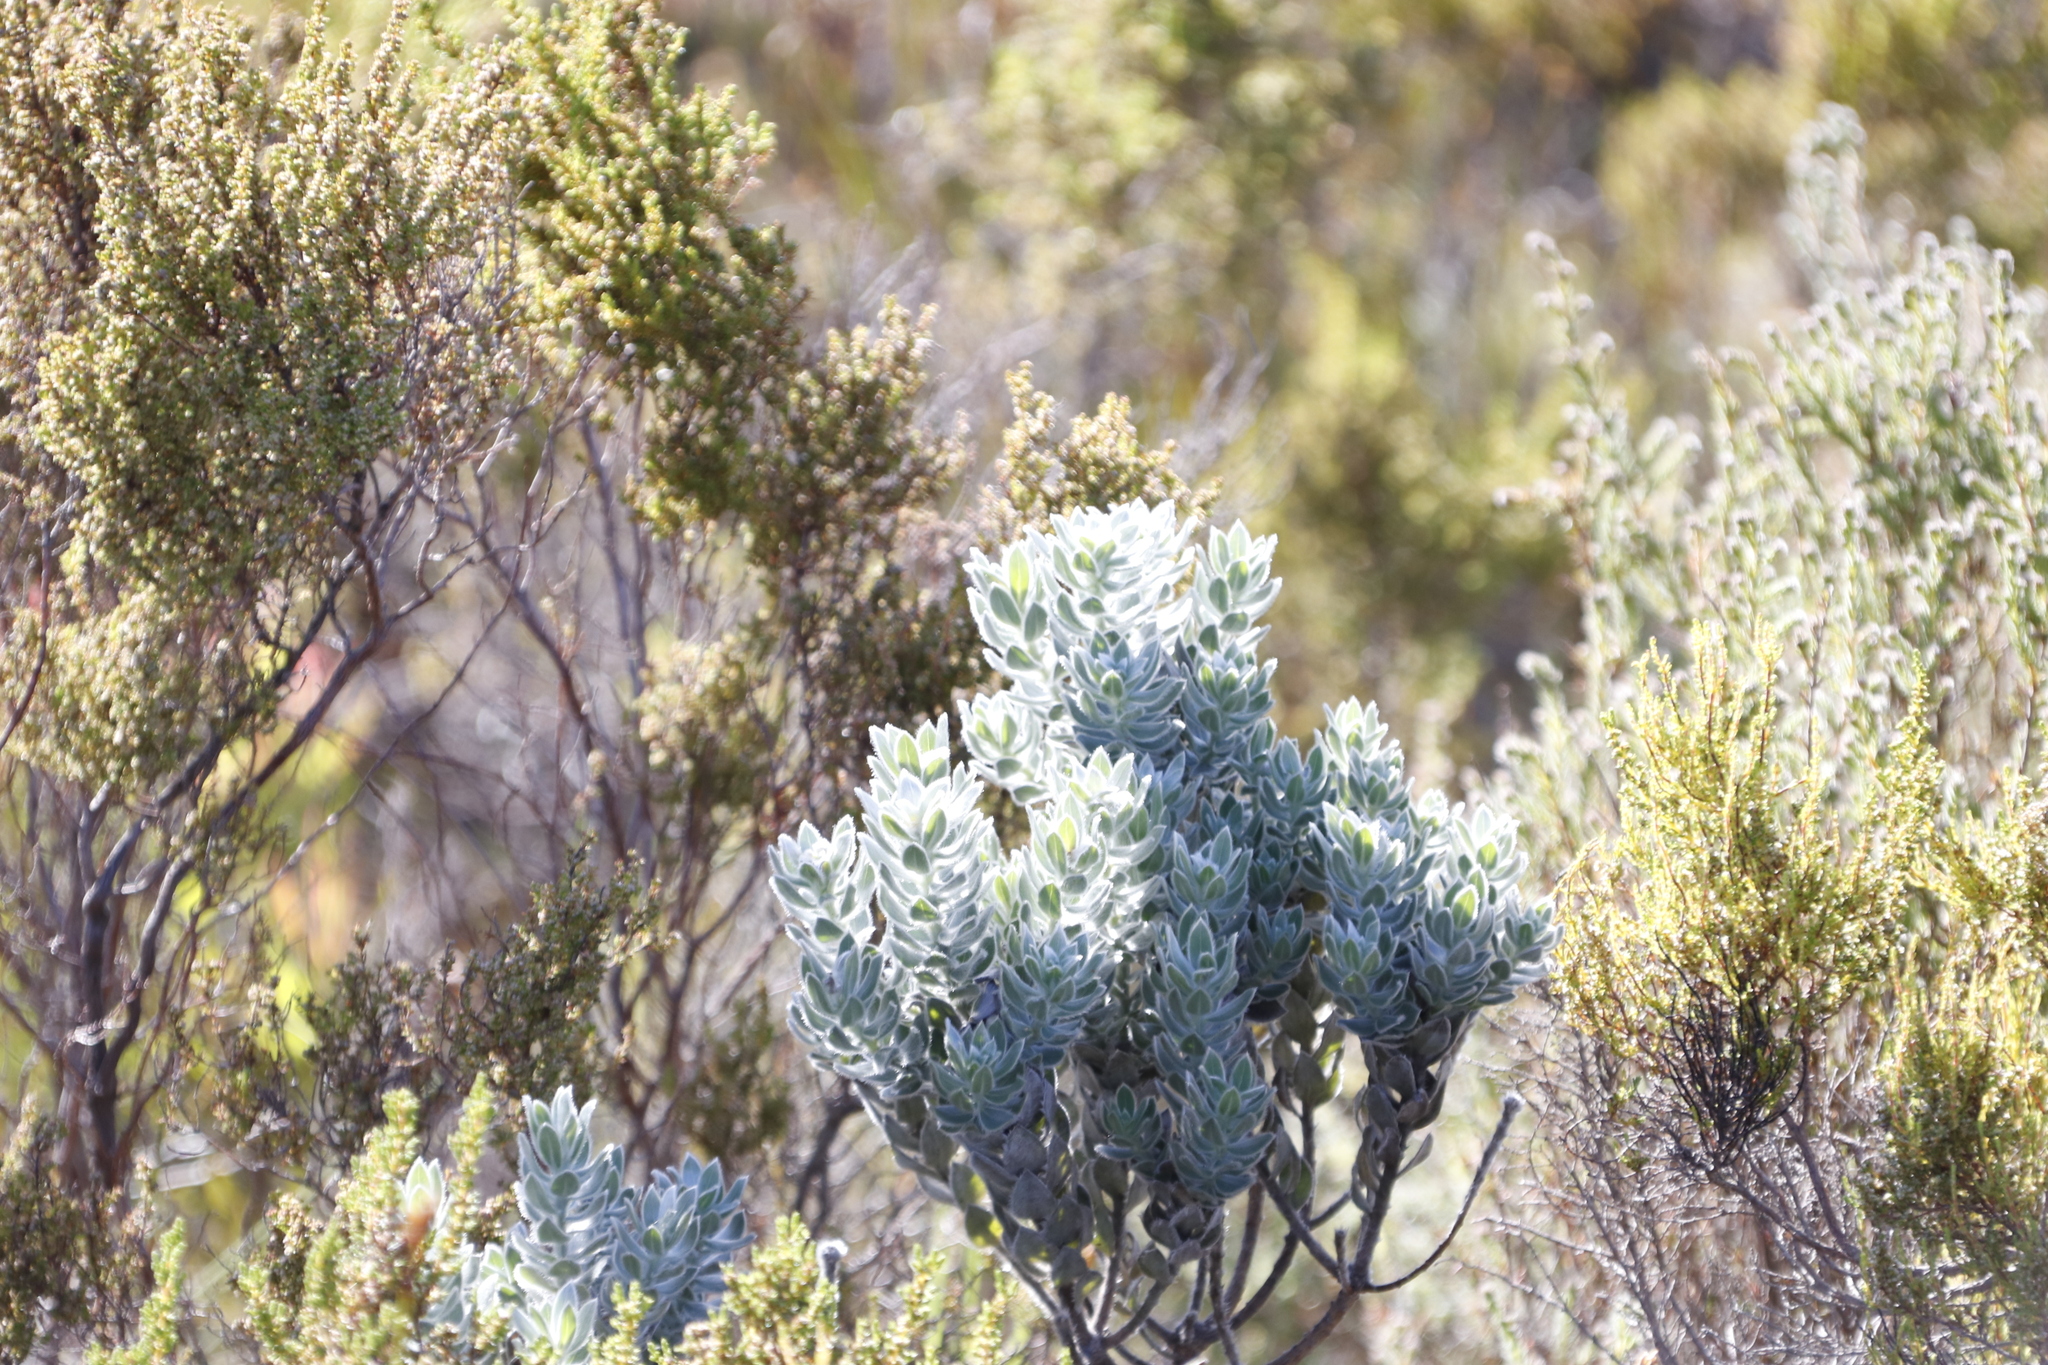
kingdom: Plantae
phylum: Tracheophyta
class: Magnoliopsida
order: Fabales
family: Fabaceae
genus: Xiphotheca
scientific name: Xiphotheca fruticosa
